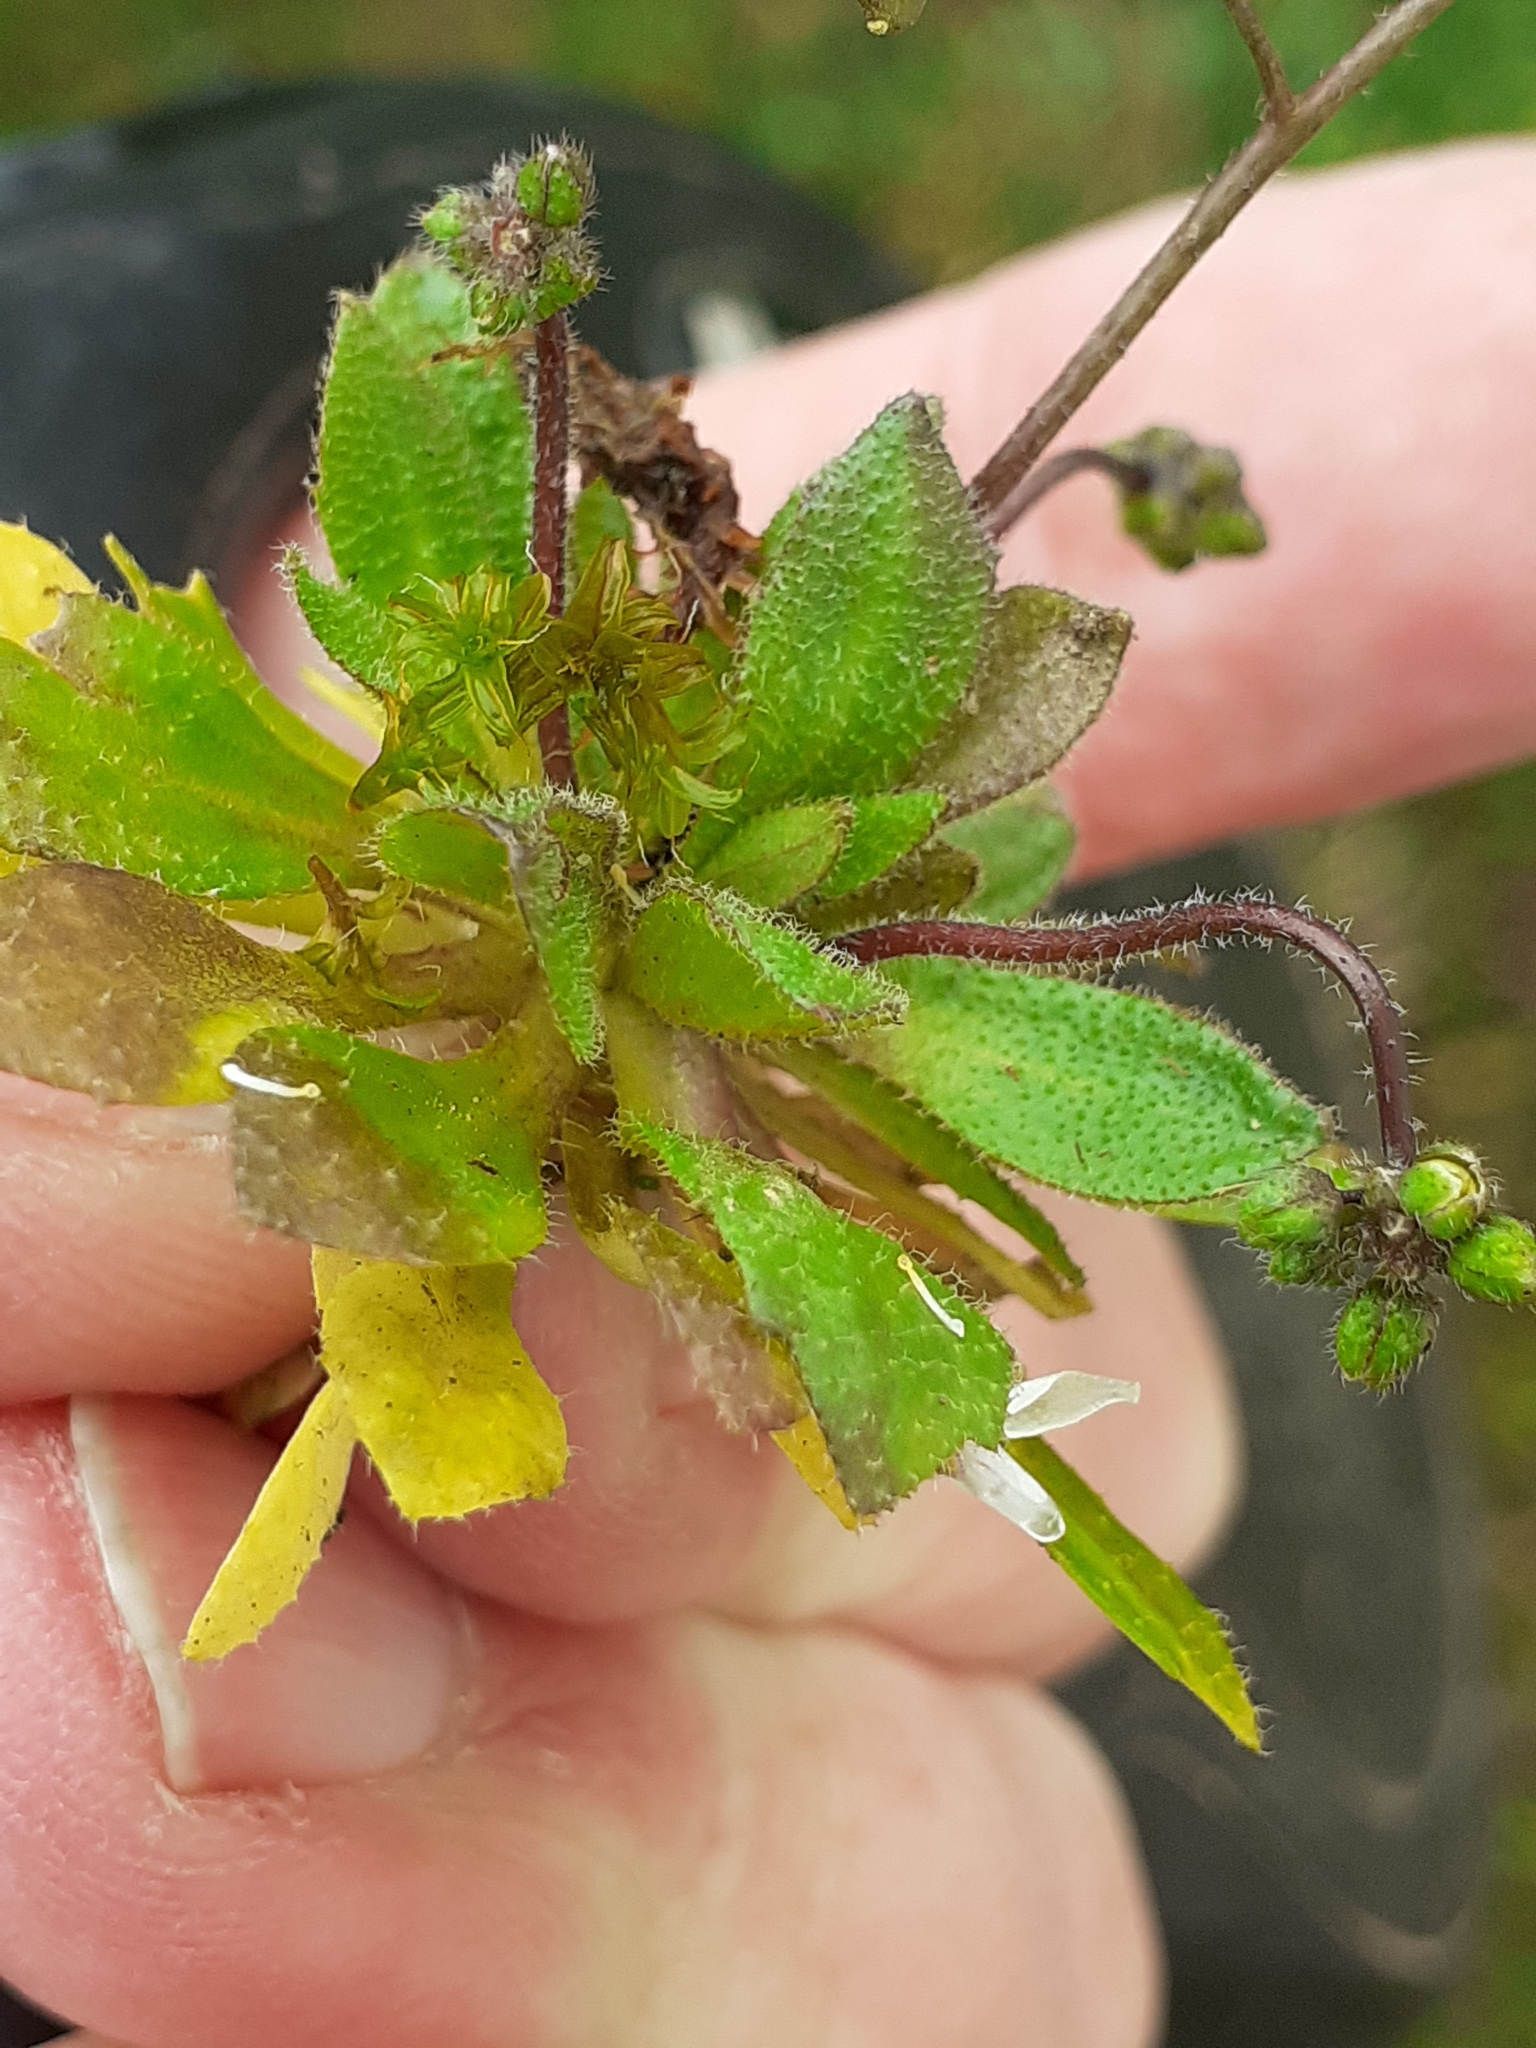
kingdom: Plantae
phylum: Tracheophyta
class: Magnoliopsida
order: Brassicales
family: Brassicaceae
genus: Draba
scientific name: Draba verna
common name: Spring draba
